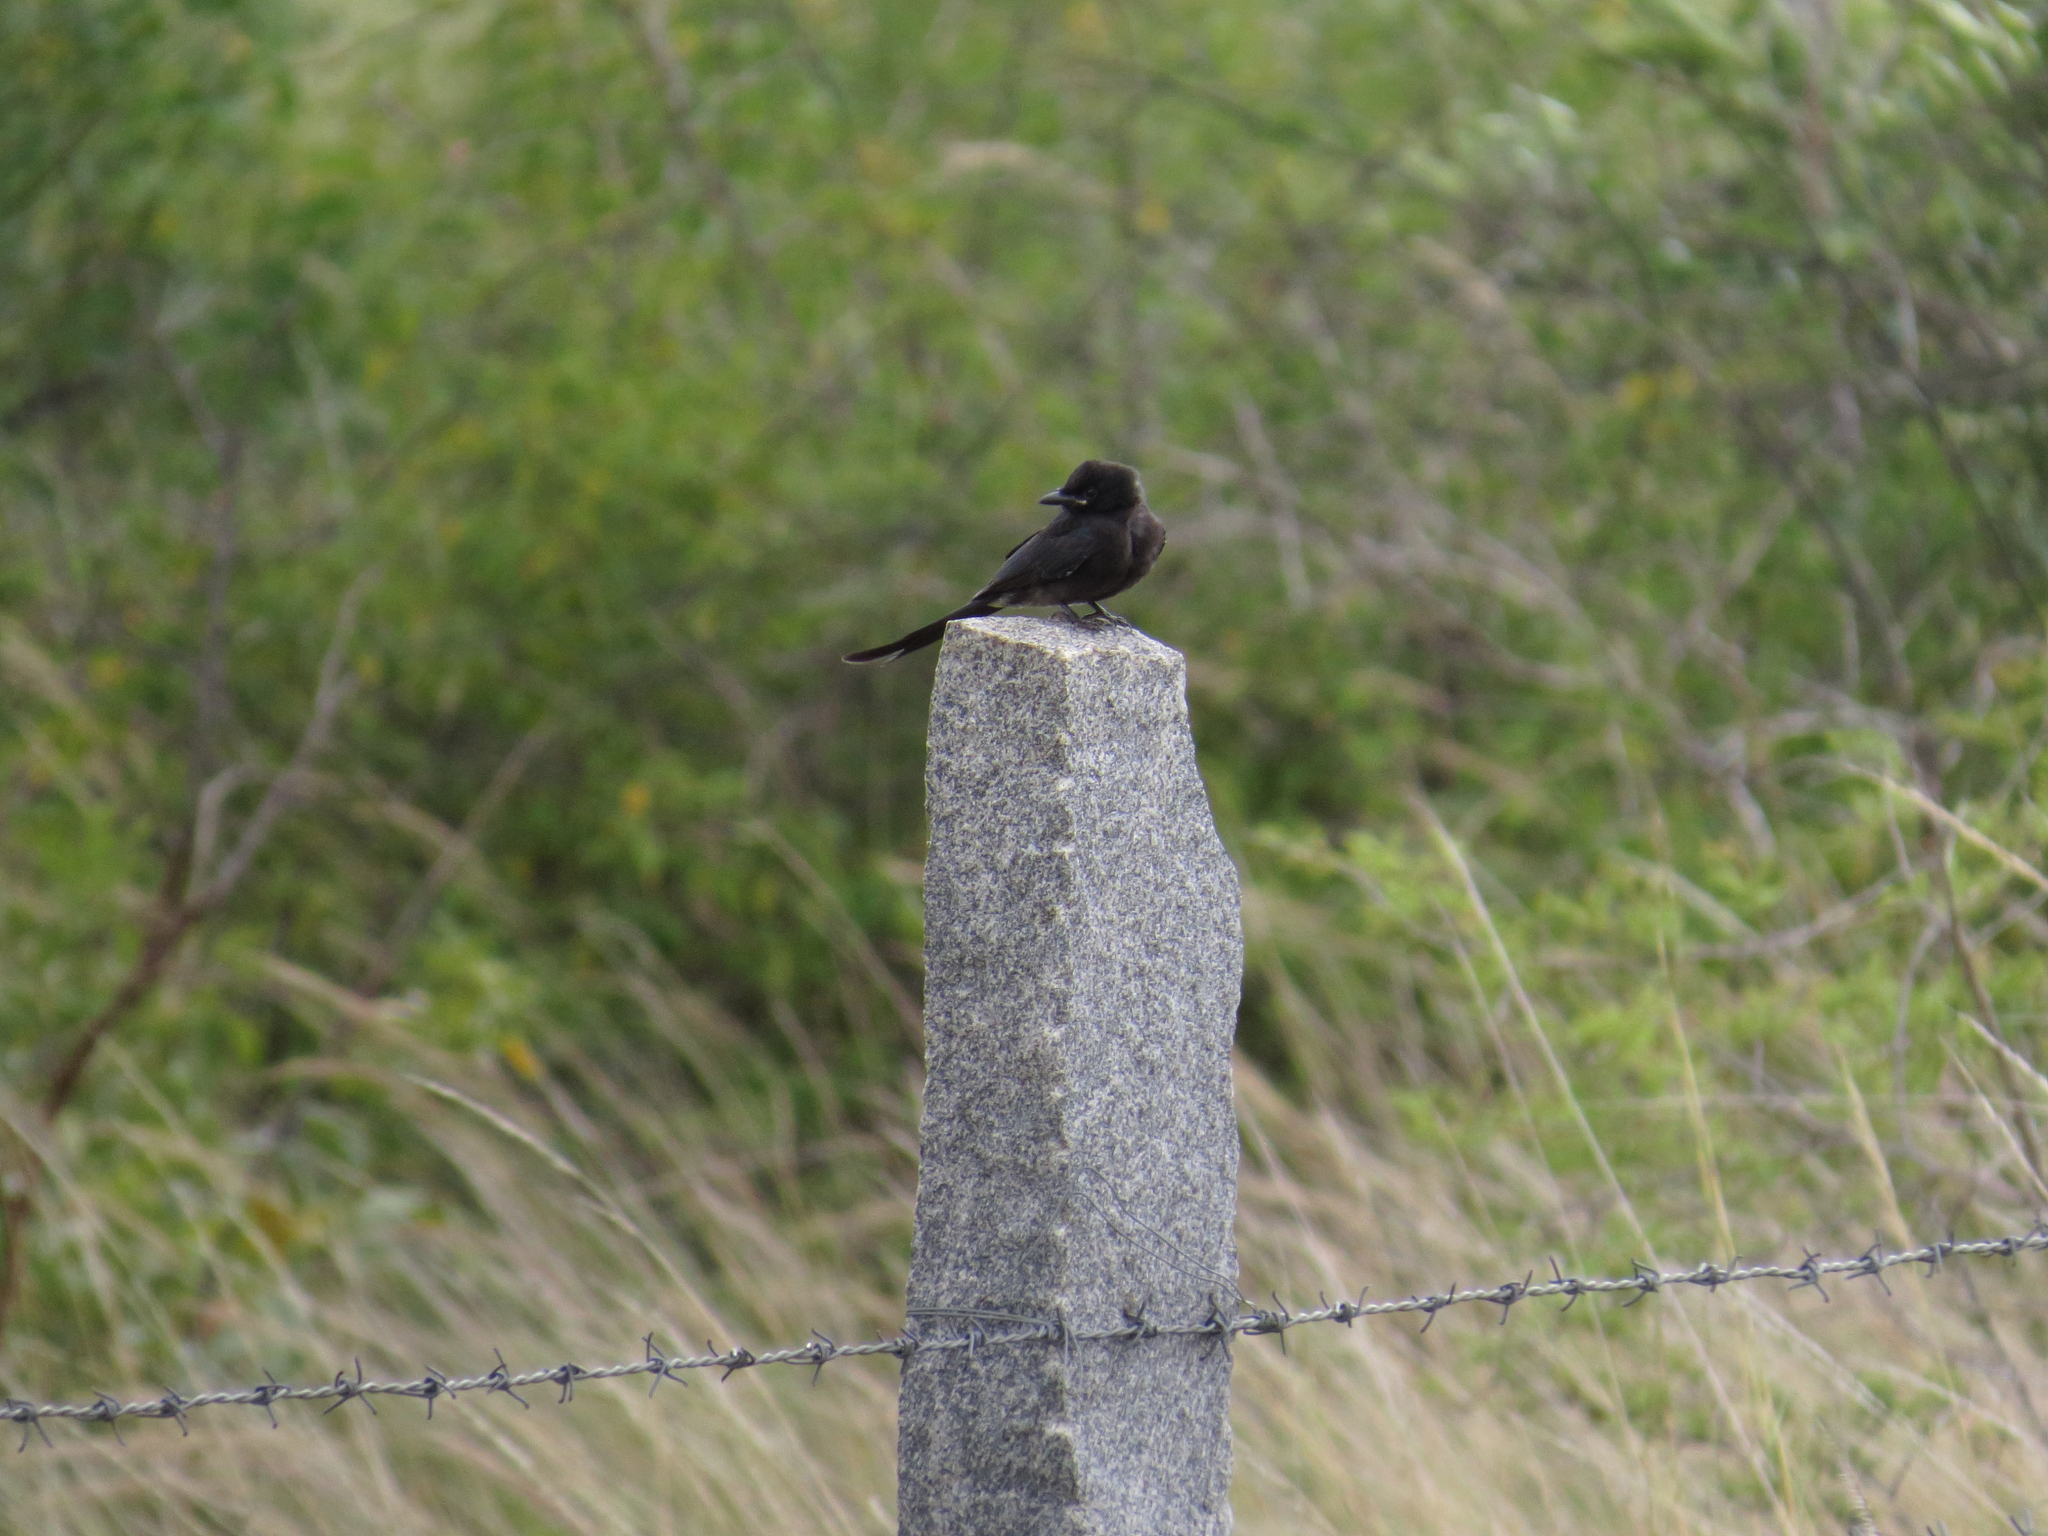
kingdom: Animalia
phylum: Chordata
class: Aves
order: Passeriformes
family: Dicruridae
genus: Dicrurus
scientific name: Dicrurus macrocercus
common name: Black drongo
